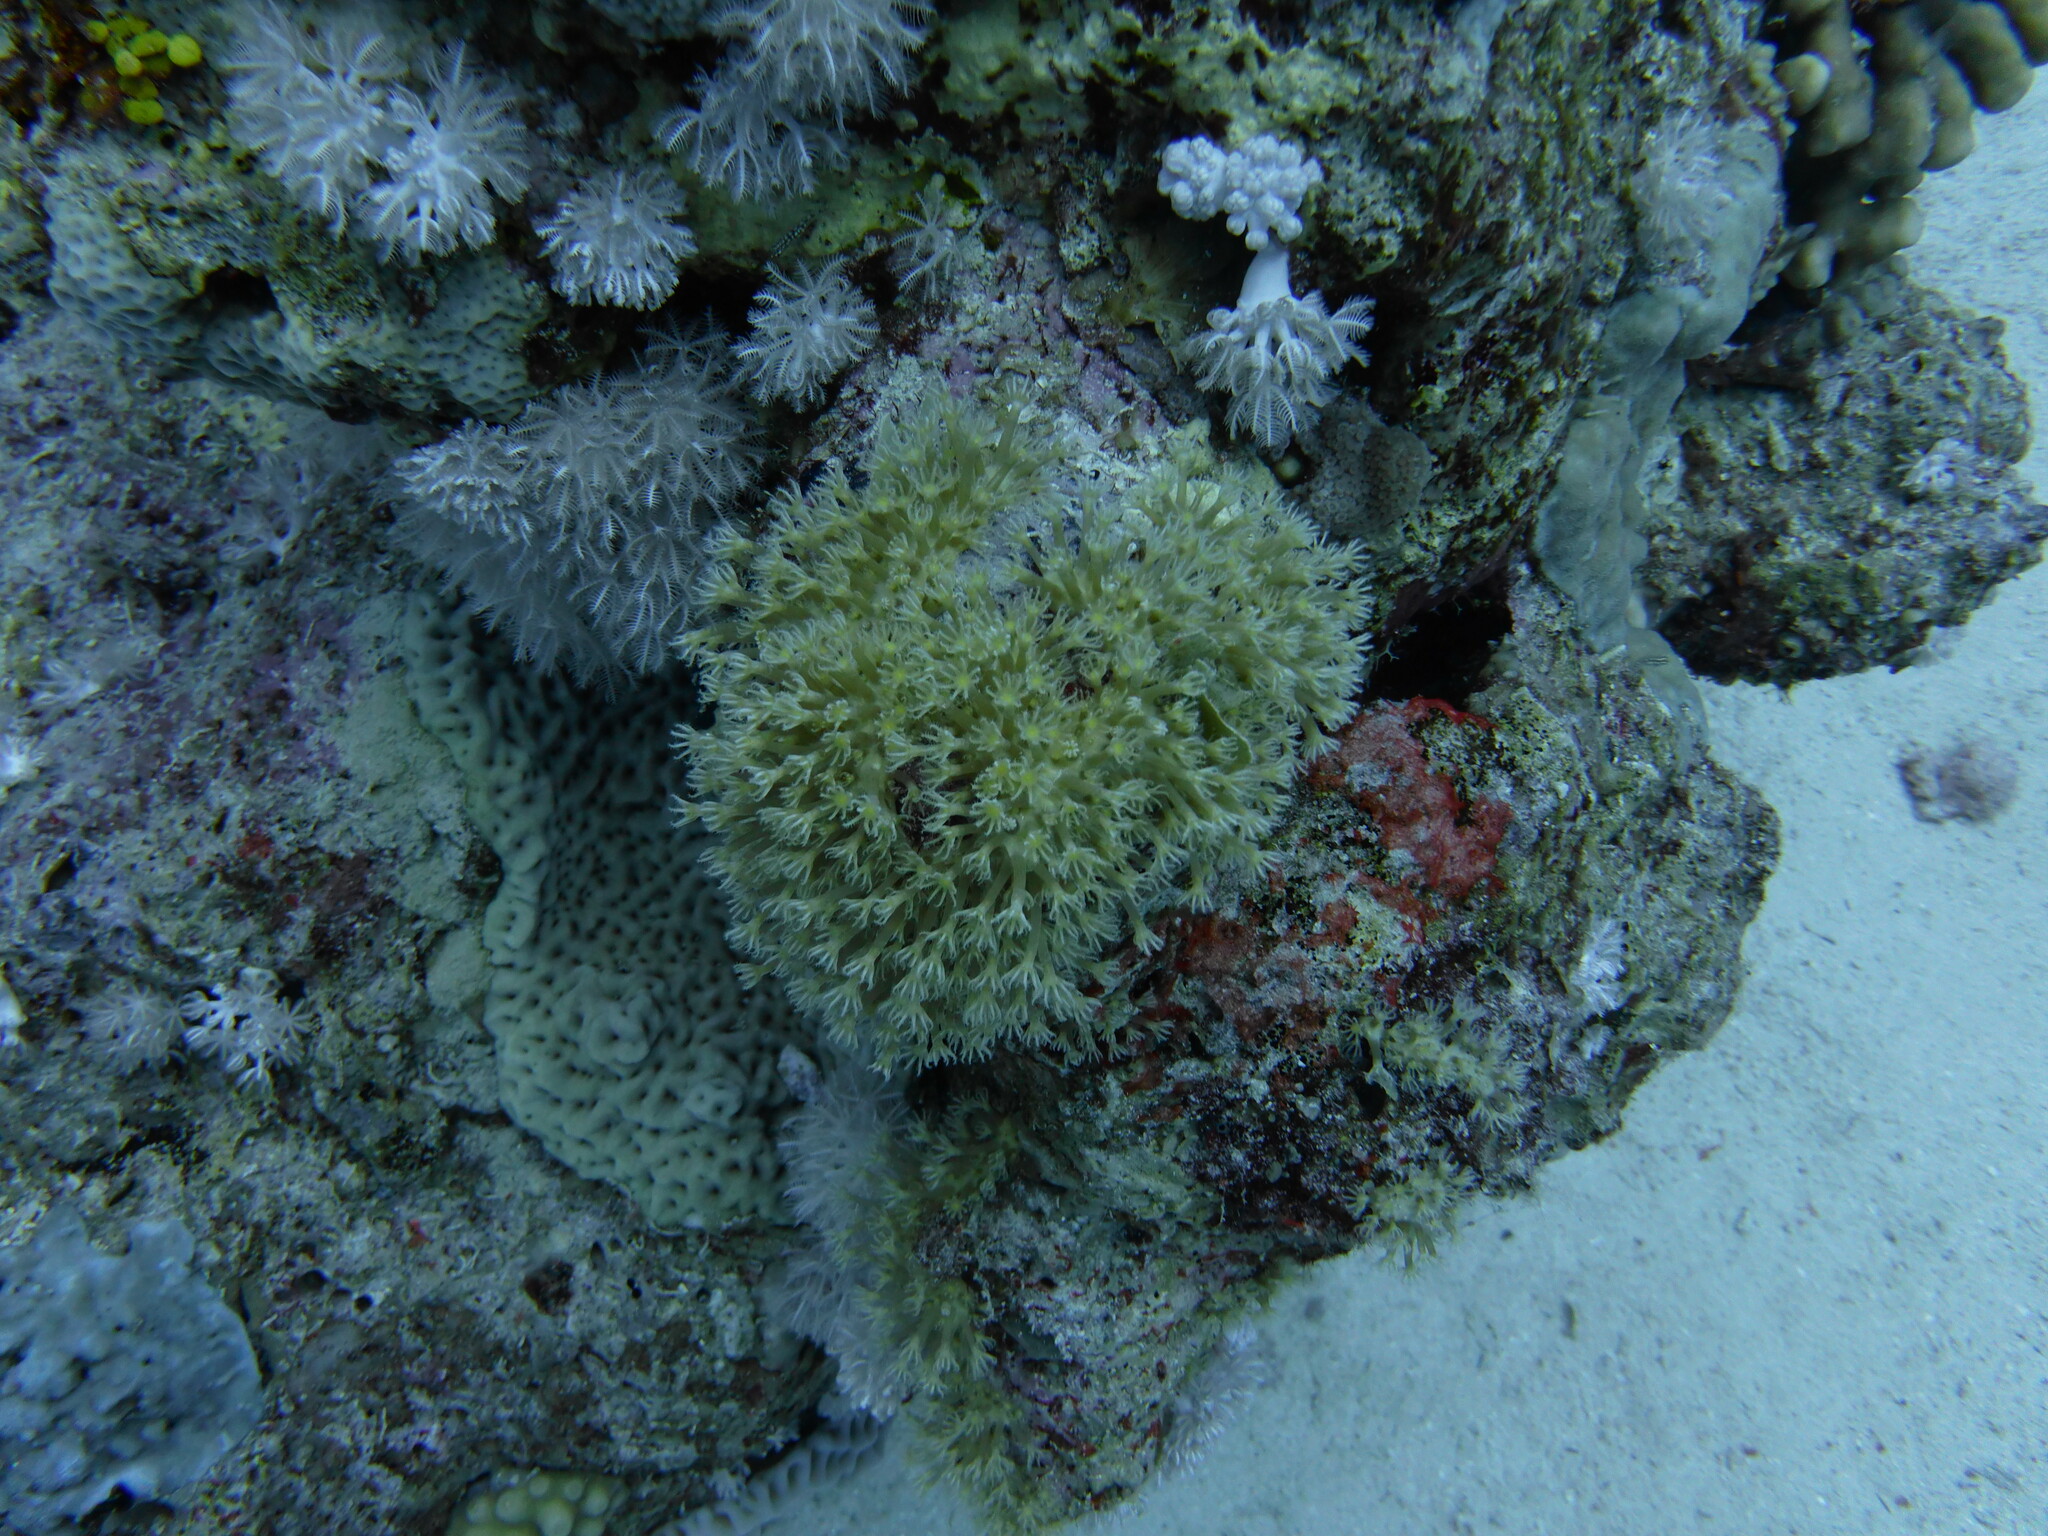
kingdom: Animalia
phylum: Cnidaria
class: Anthozoa
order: Malacalcyonacea
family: Lemnaliadae
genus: Rhytisma
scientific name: Rhytisma fulvum
